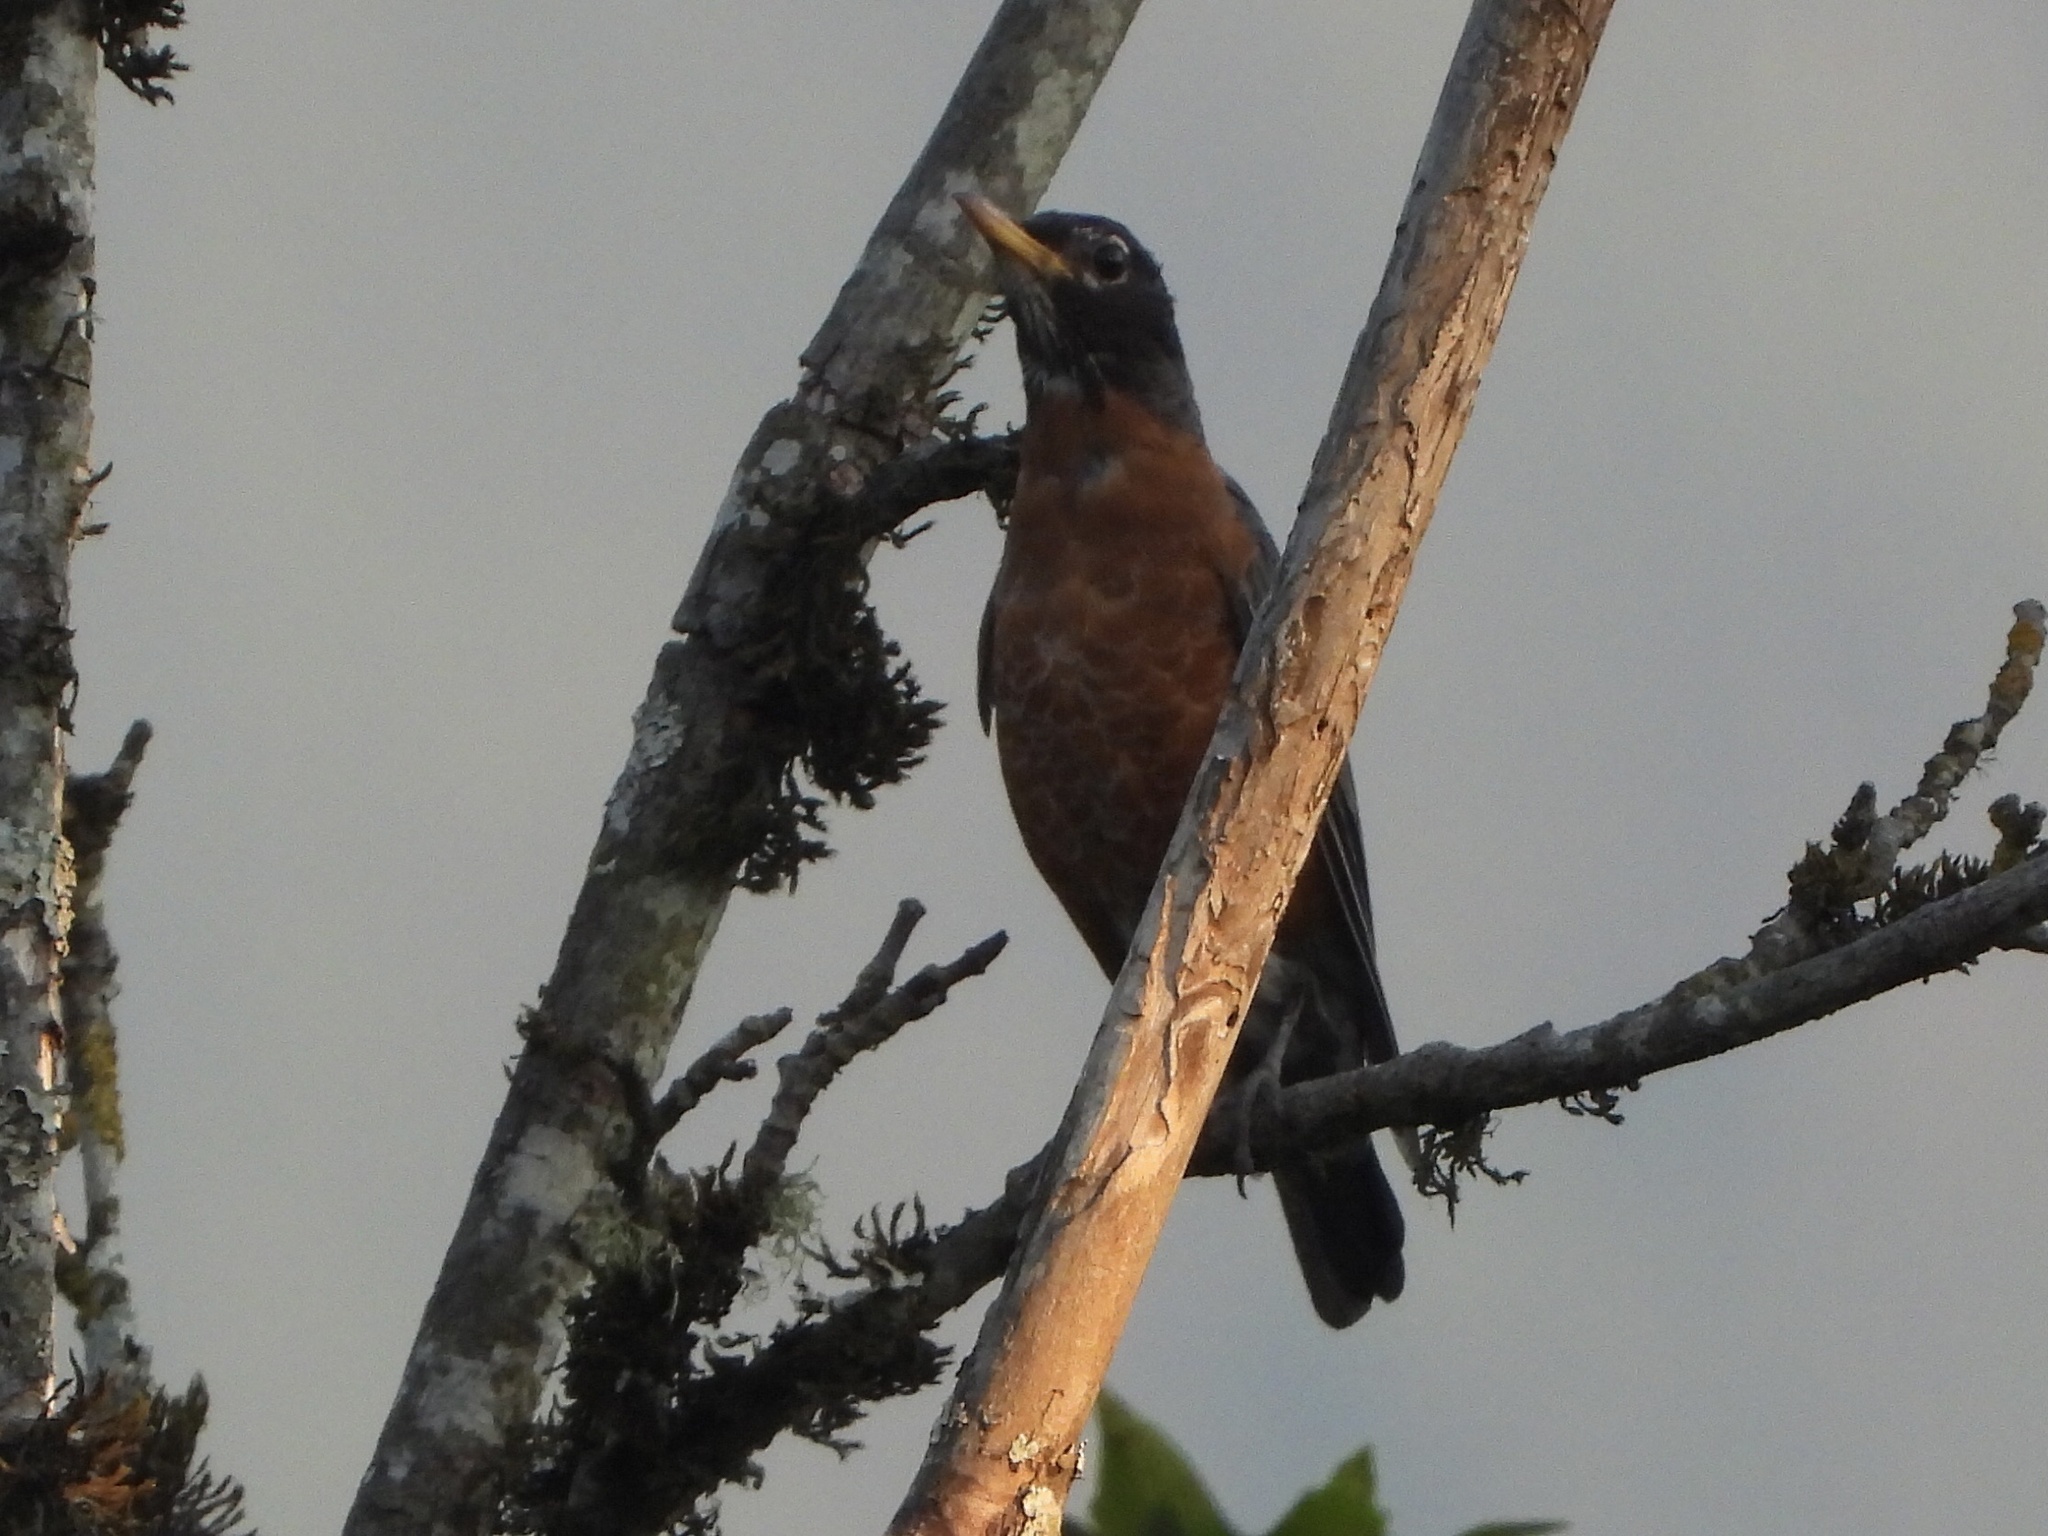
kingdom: Animalia
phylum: Chordata
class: Aves
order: Passeriformes
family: Turdidae
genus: Turdus
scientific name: Turdus migratorius
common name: American robin
